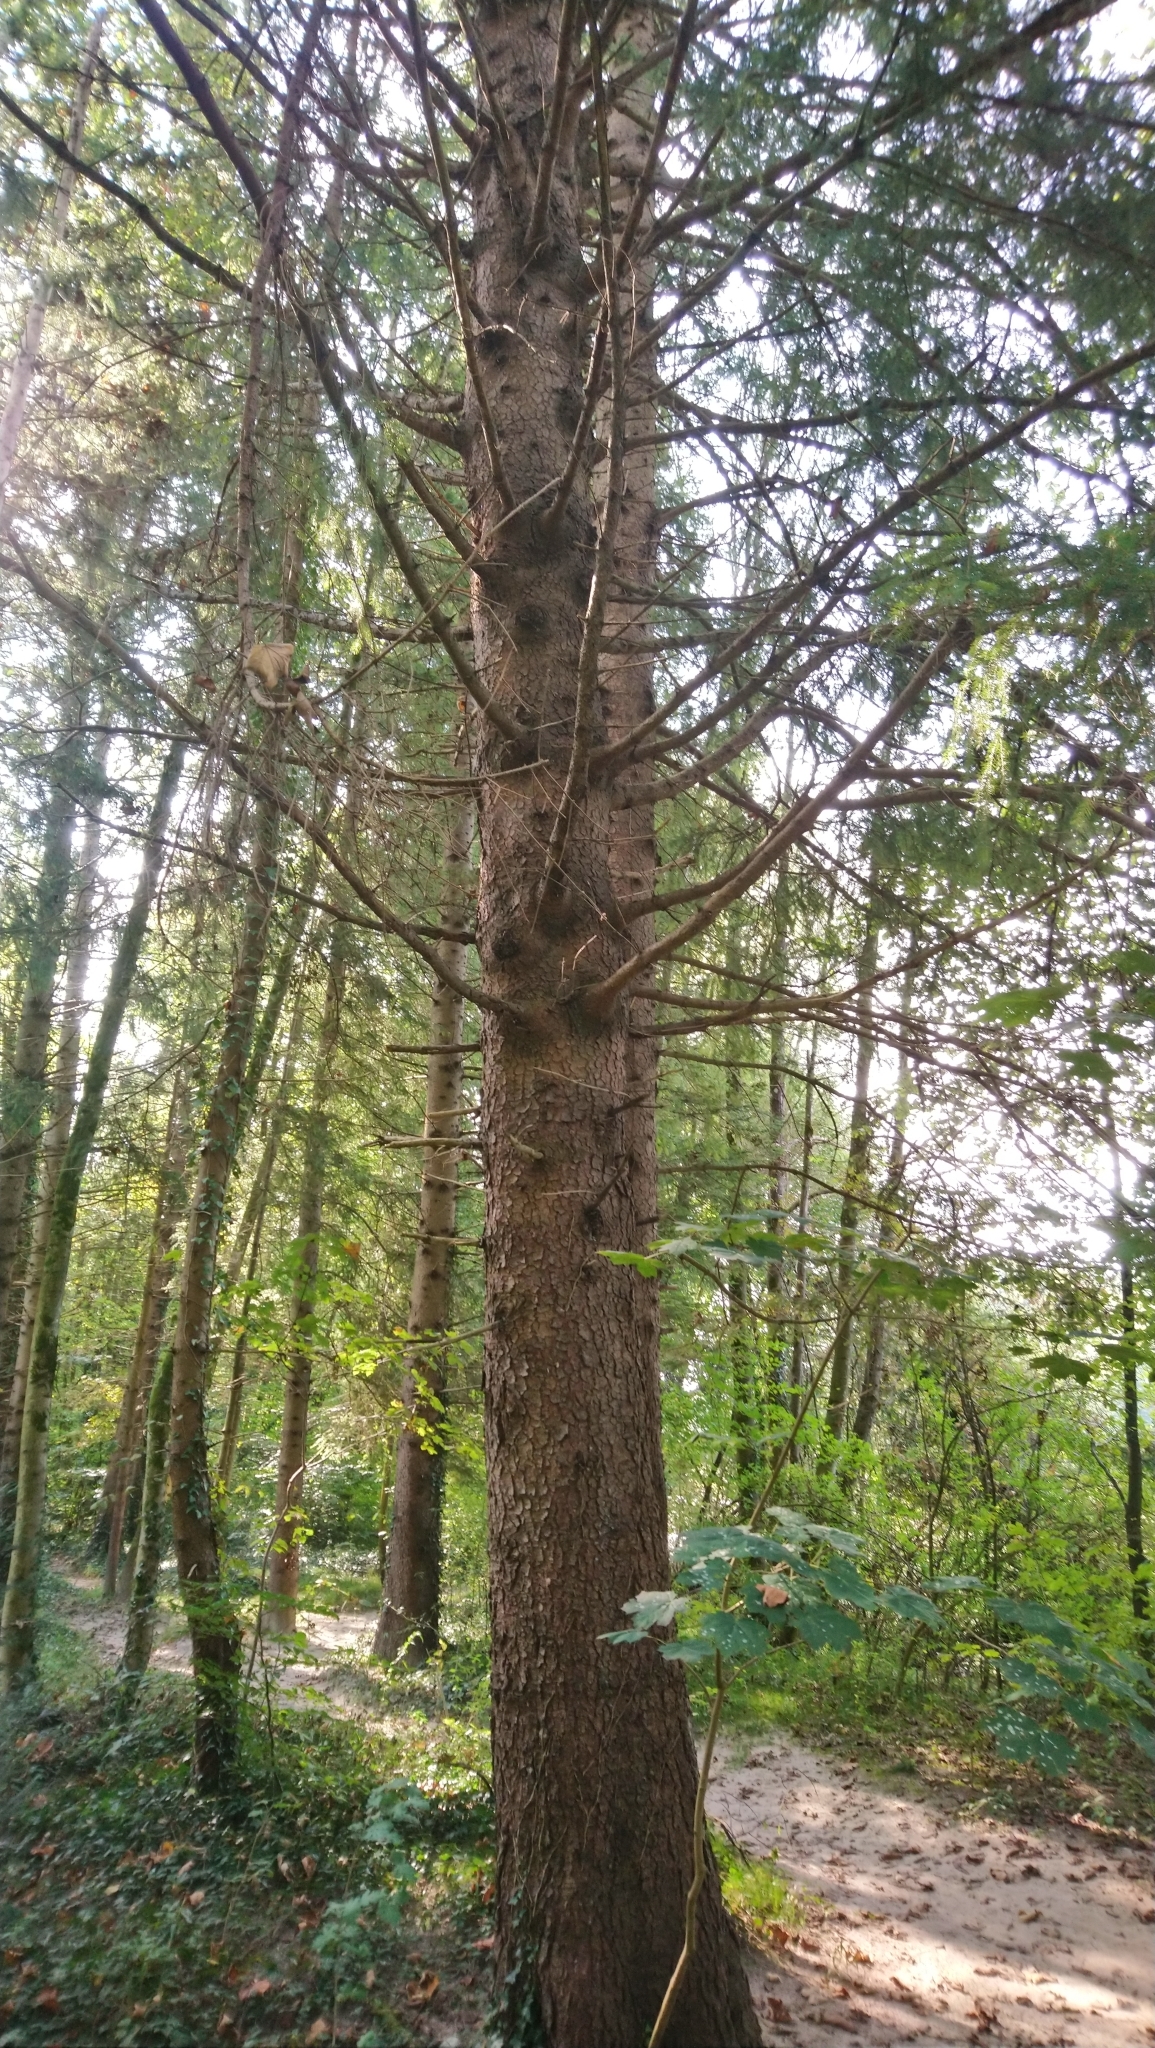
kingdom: Plantae
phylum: Tracheophyta
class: Pinopsida
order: Pinales
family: Pinaceae
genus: Picea
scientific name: Picea abies
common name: Norway spruce
